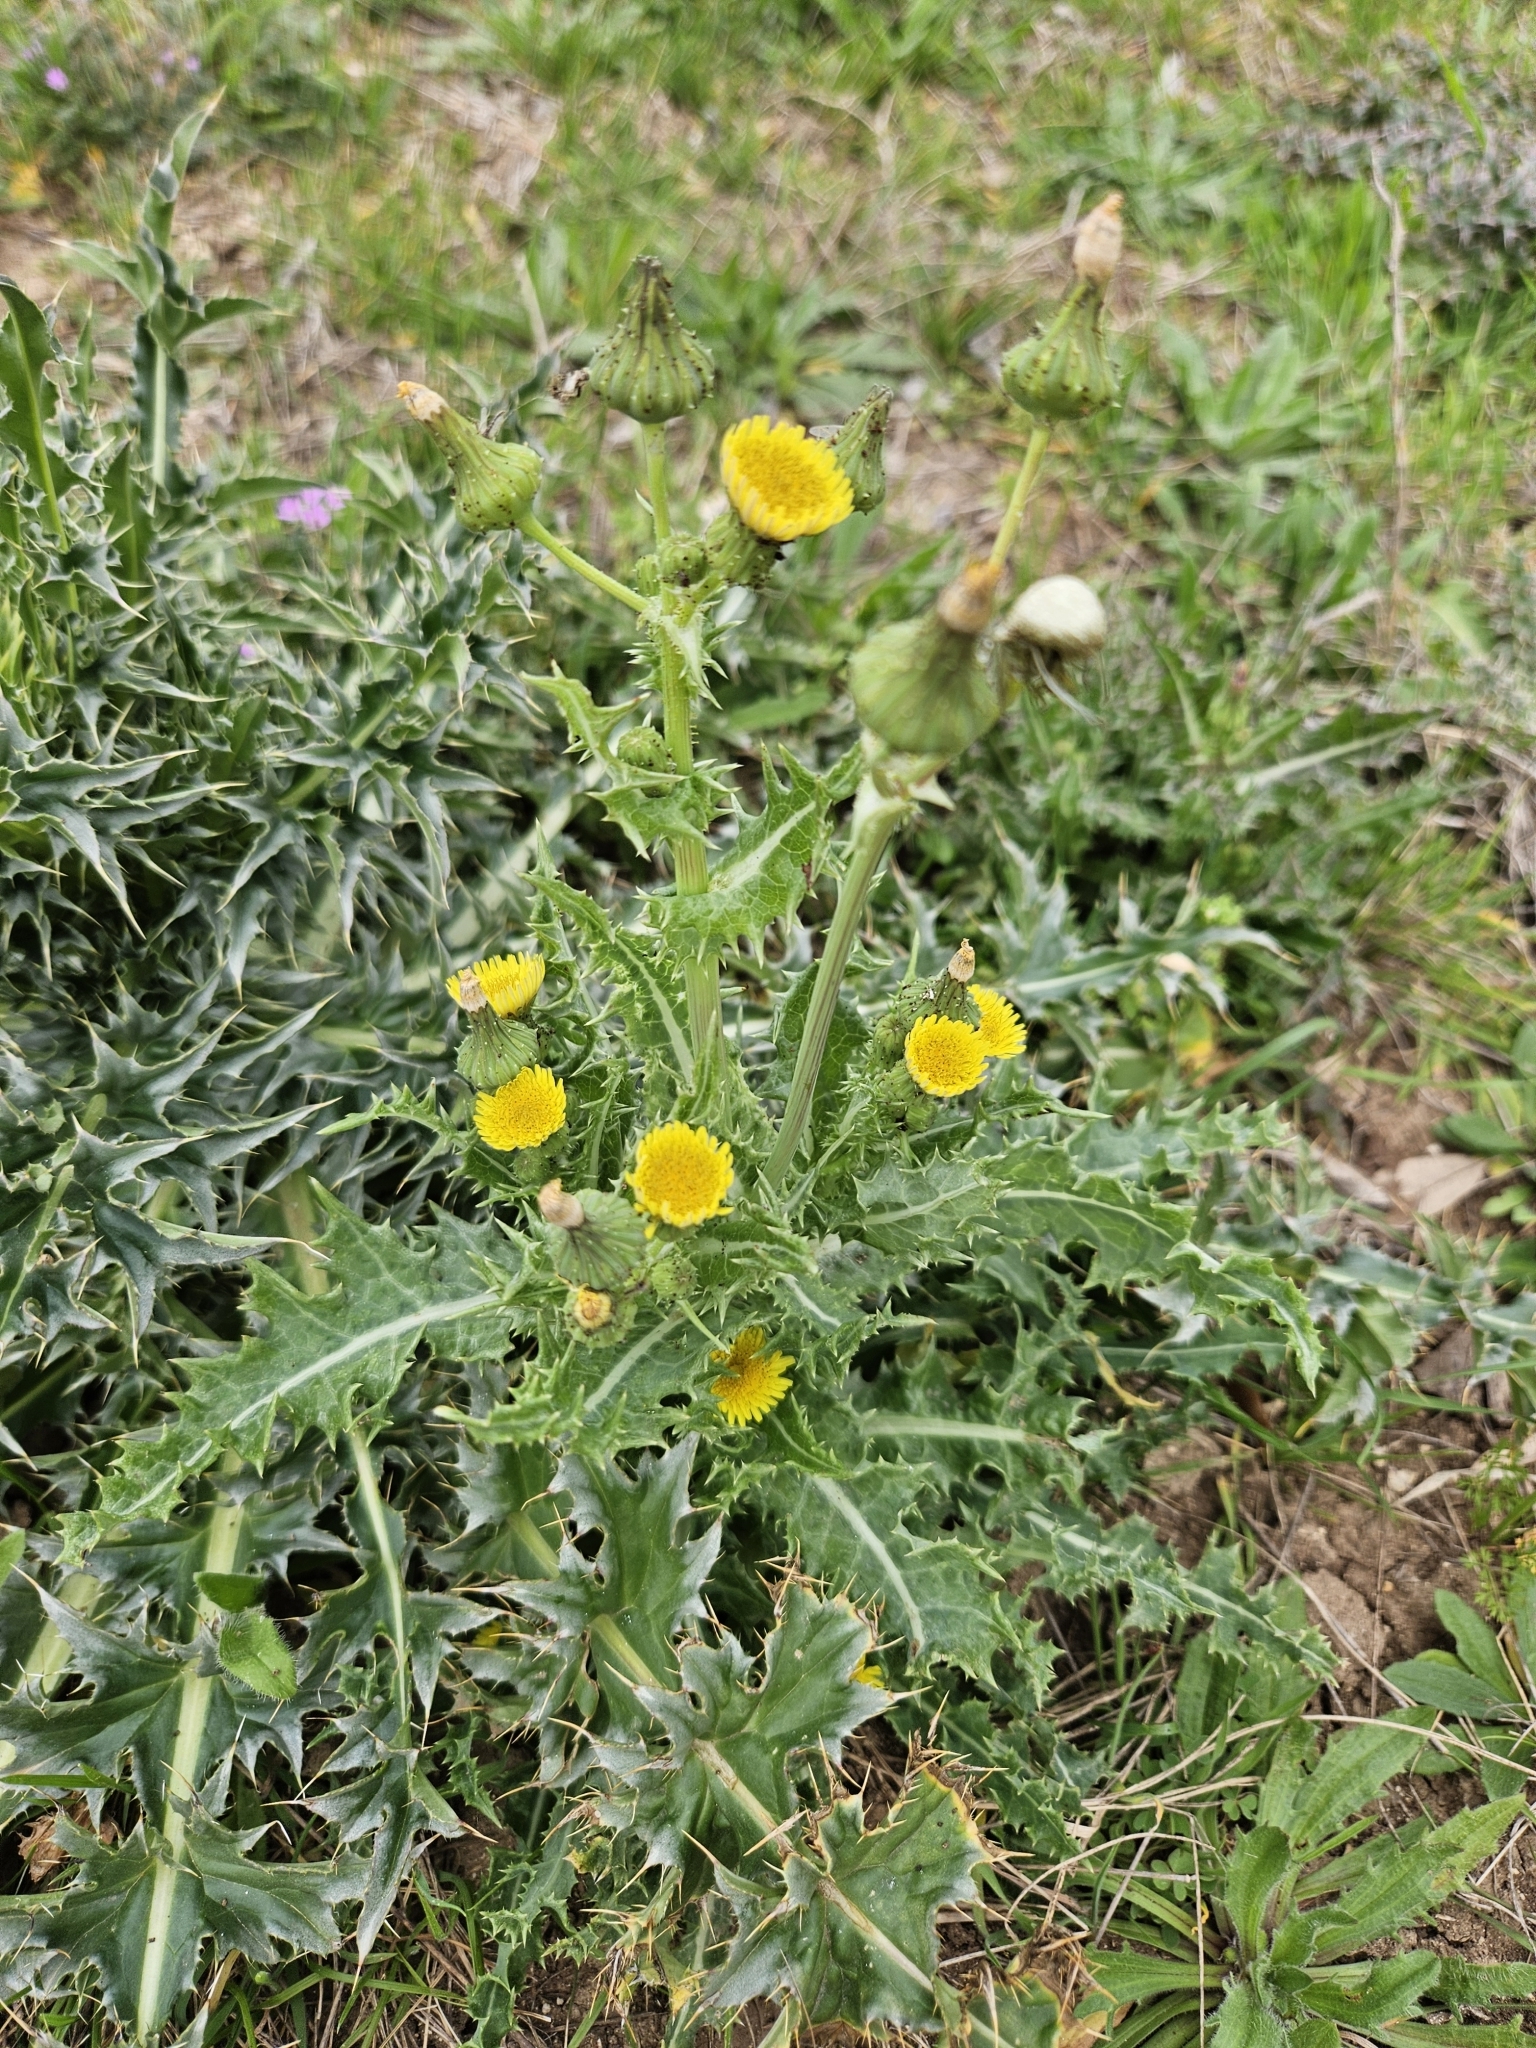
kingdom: Plantae
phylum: Tracheophyta
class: Magnoliopsida
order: Asterales
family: Asteraceae
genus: Sonchus
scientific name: Sonchus asper
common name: Prickly sow-thistle
